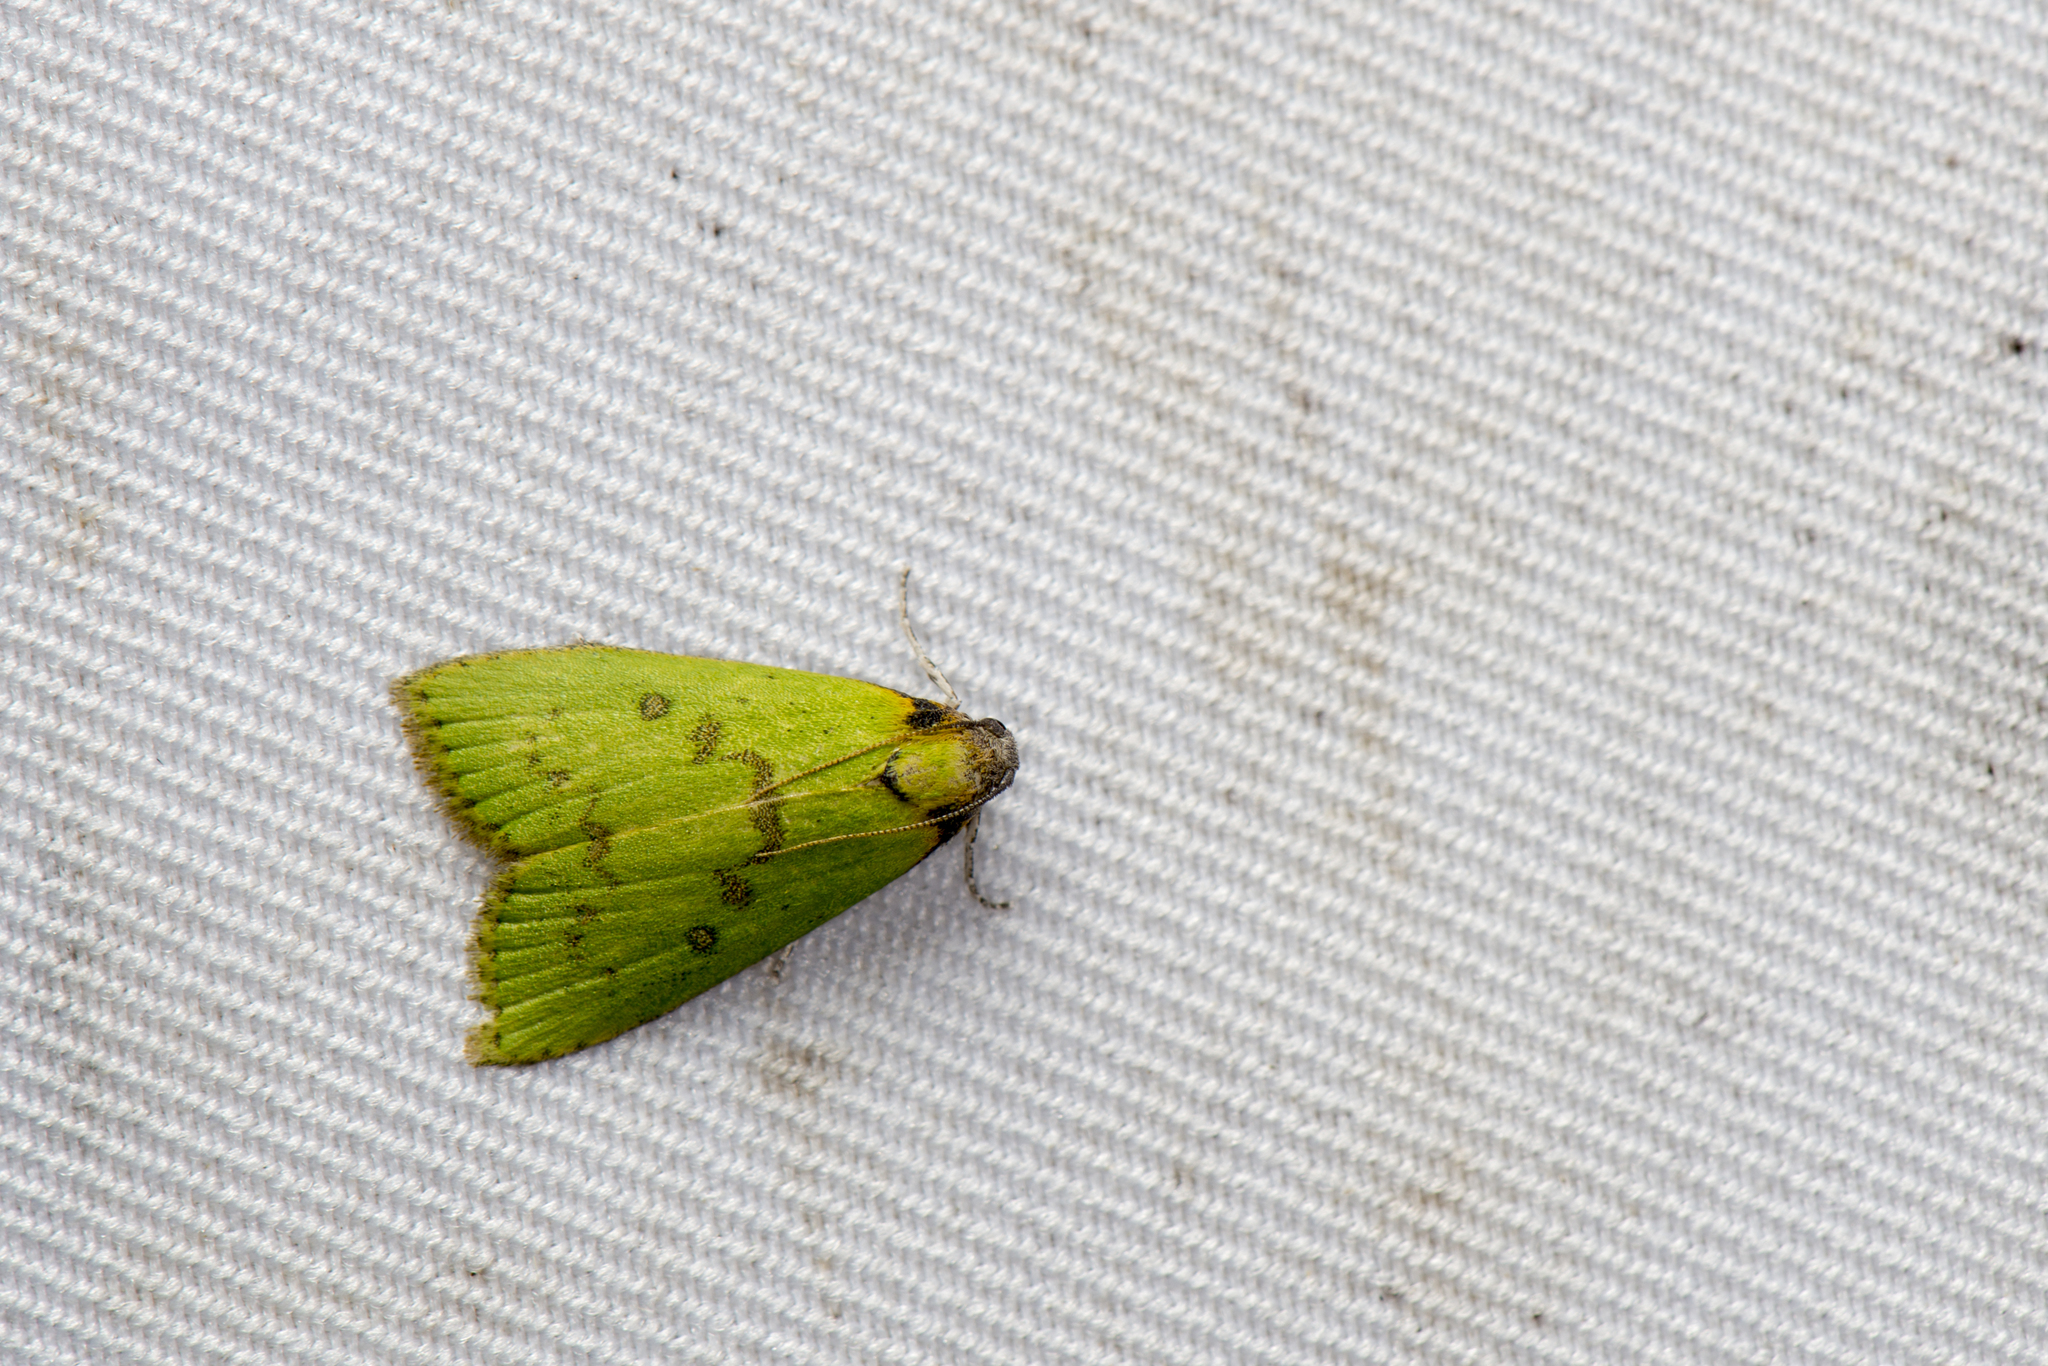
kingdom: Animalia
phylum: Arthropoda
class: Insecta
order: Lepidoptera
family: Pyralidae
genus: Doloessa
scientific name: Doloessa viridis
